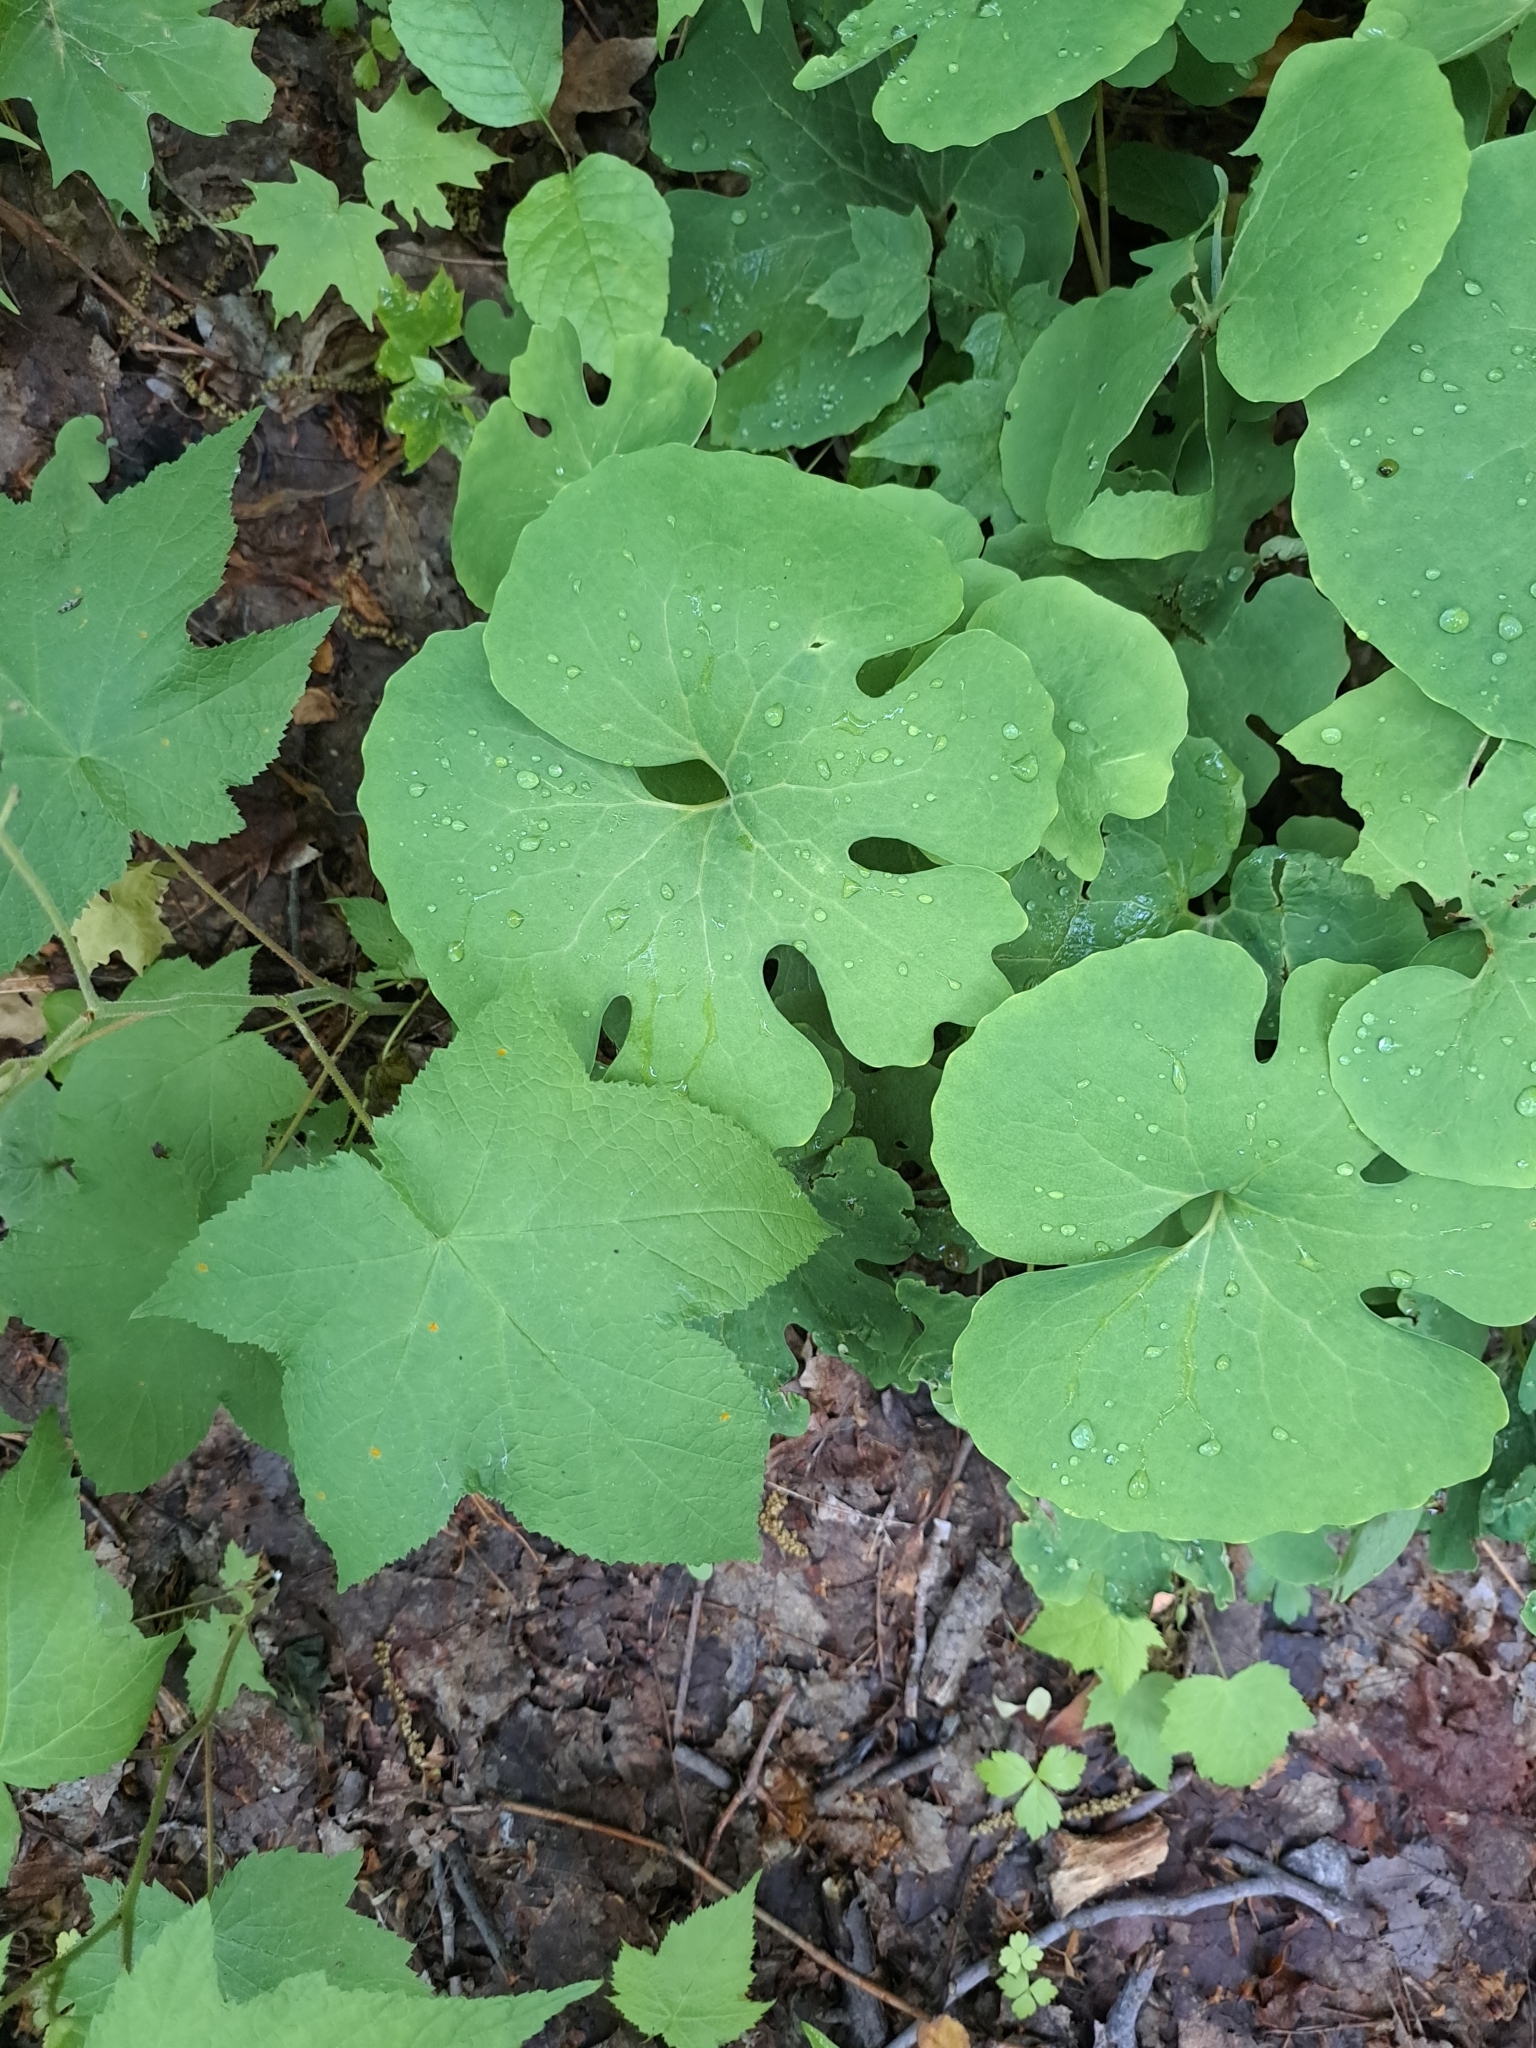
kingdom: Plantae
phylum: Tracheophyta
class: Magnoliopsida
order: Ranunculales
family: Papaveraceae
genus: Sanguinaria
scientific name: Sanguinaria canadensis
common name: Bloodroot
